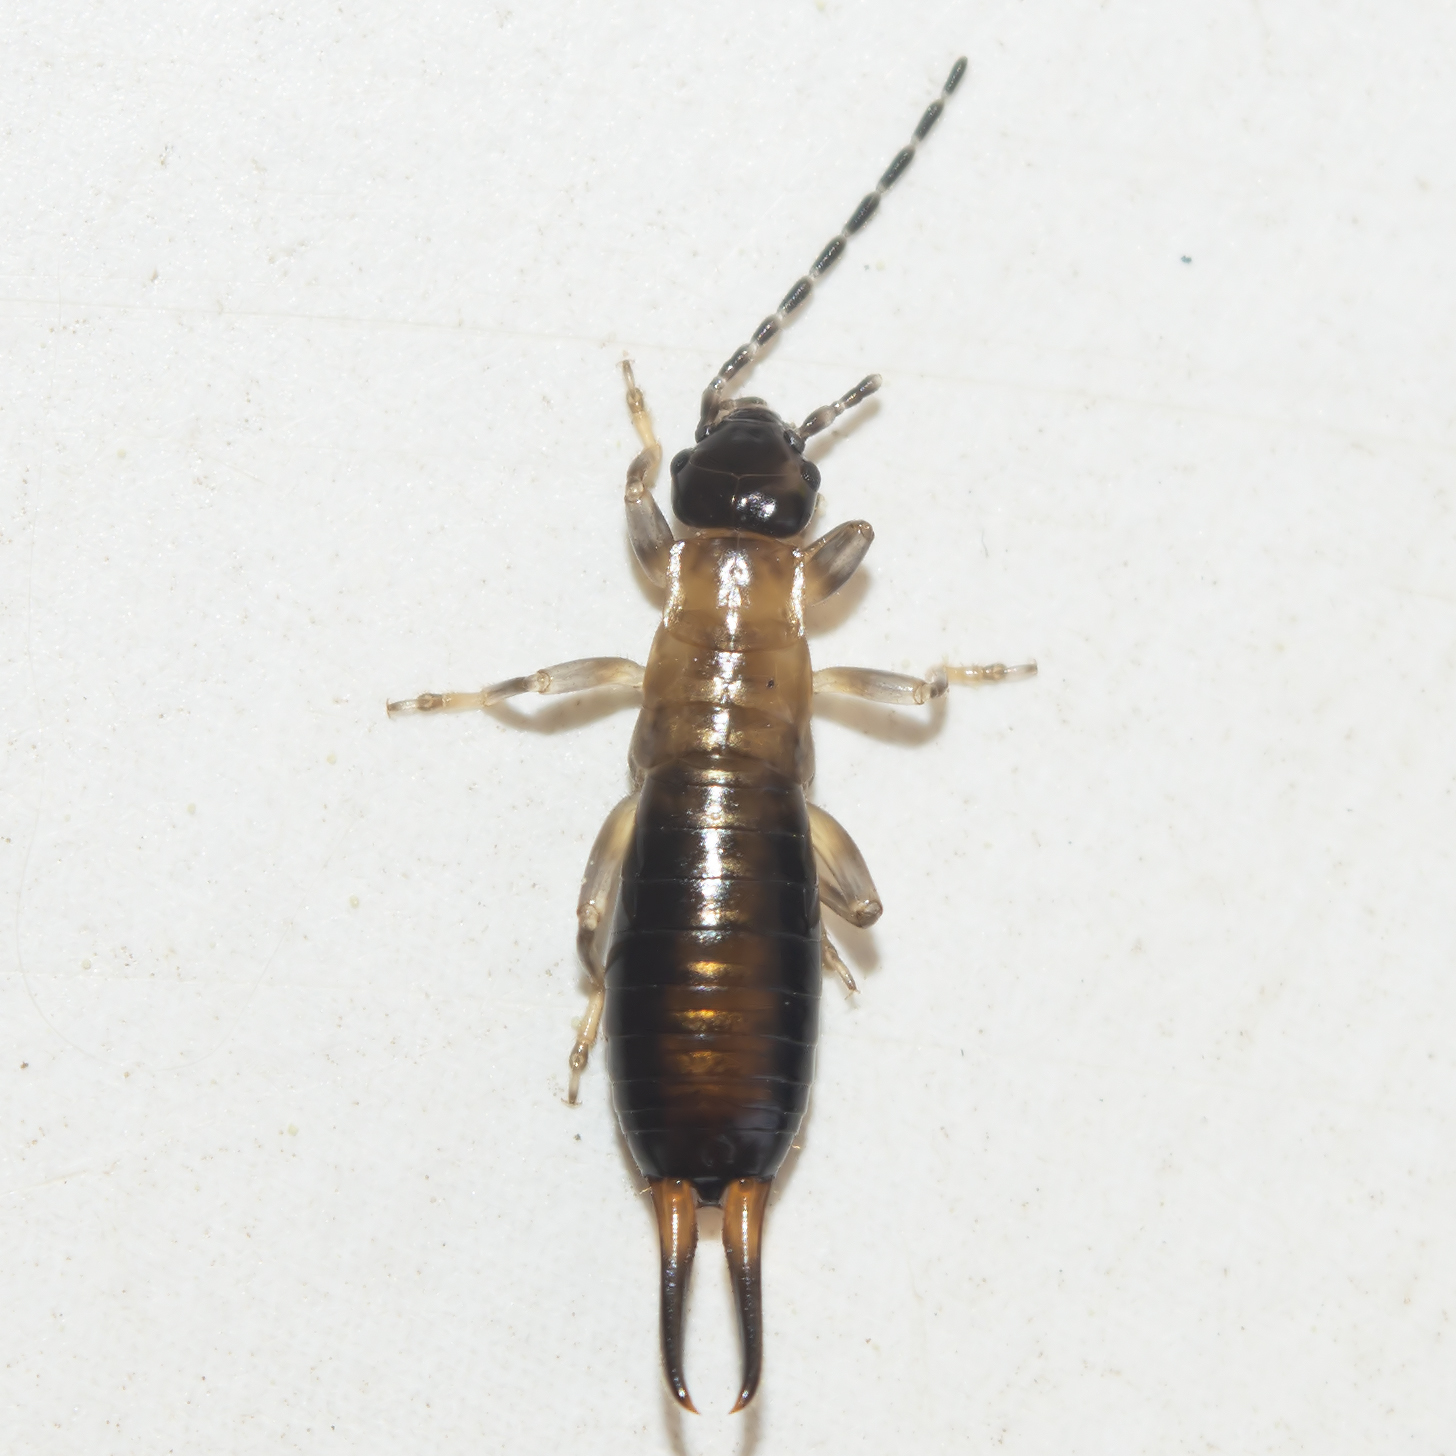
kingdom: Animalia
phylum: Arthropoda
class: Insecta
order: Dermaptera
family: Forficulidae
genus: Forficula
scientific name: Forficula
